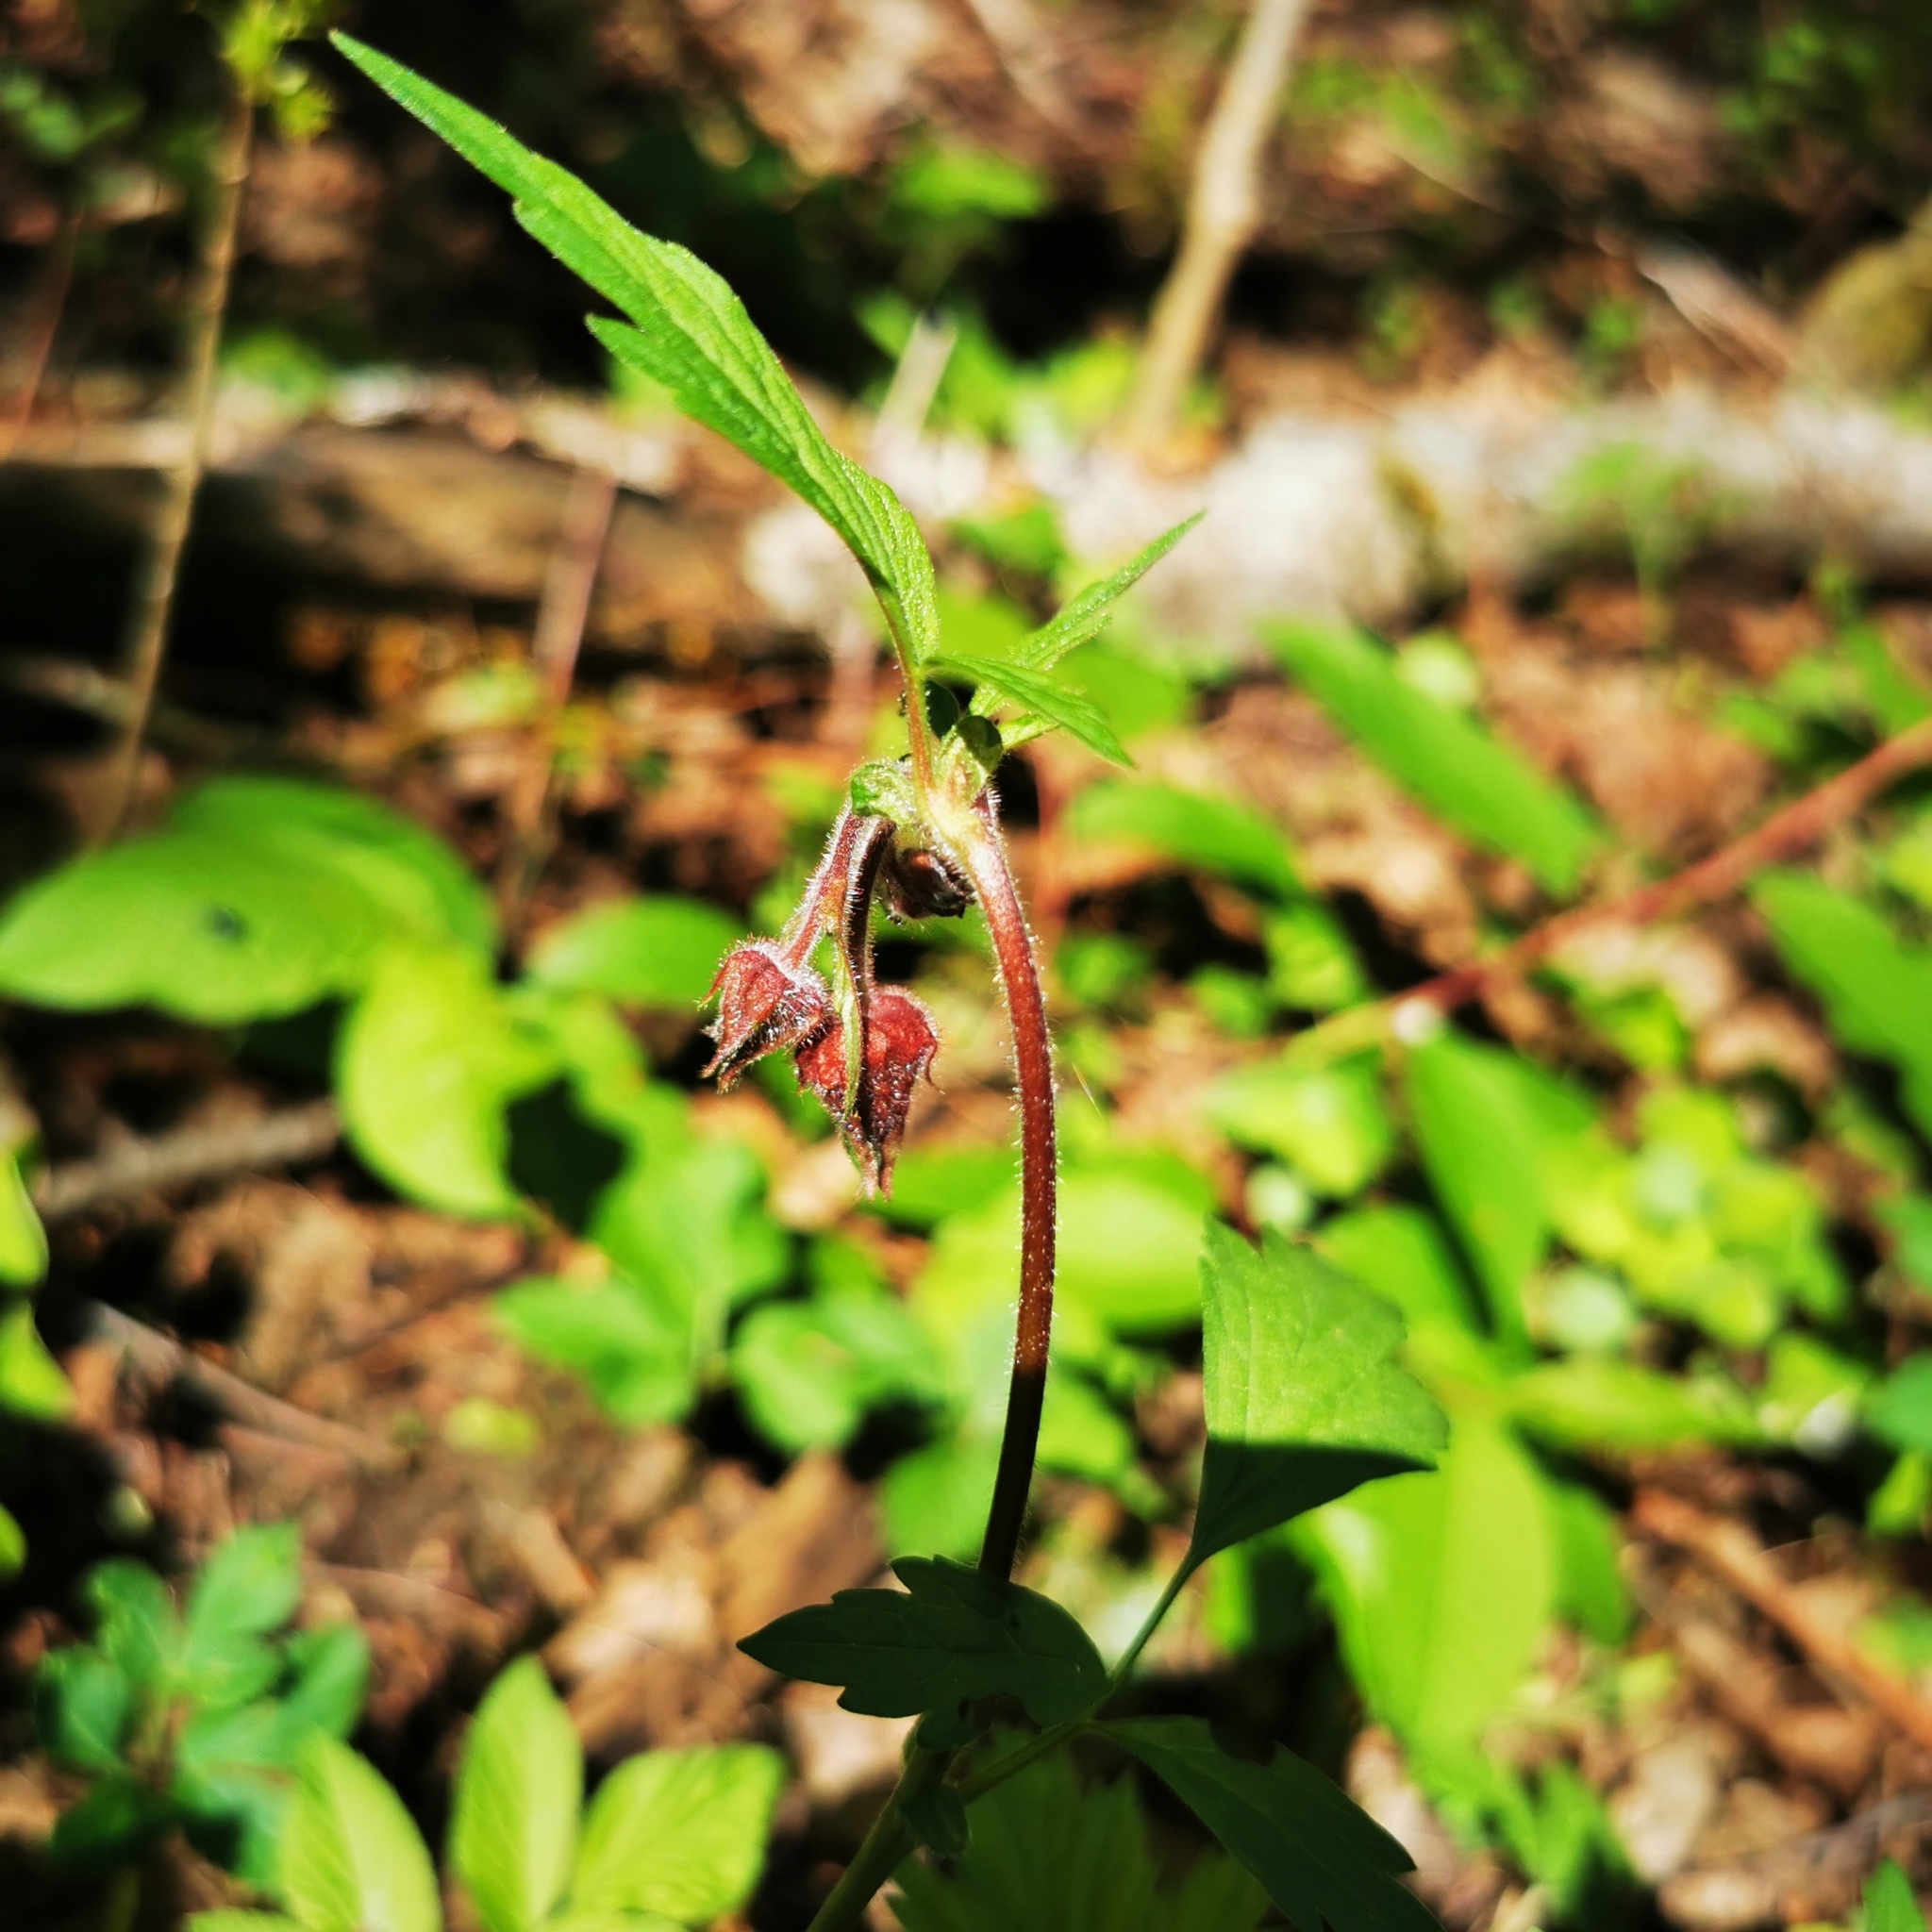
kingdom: Plantae
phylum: Tracheophyta
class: Magnoliopsida
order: Rosales
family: Rosaceae
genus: Geum
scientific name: Geum rivale
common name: Water avens
